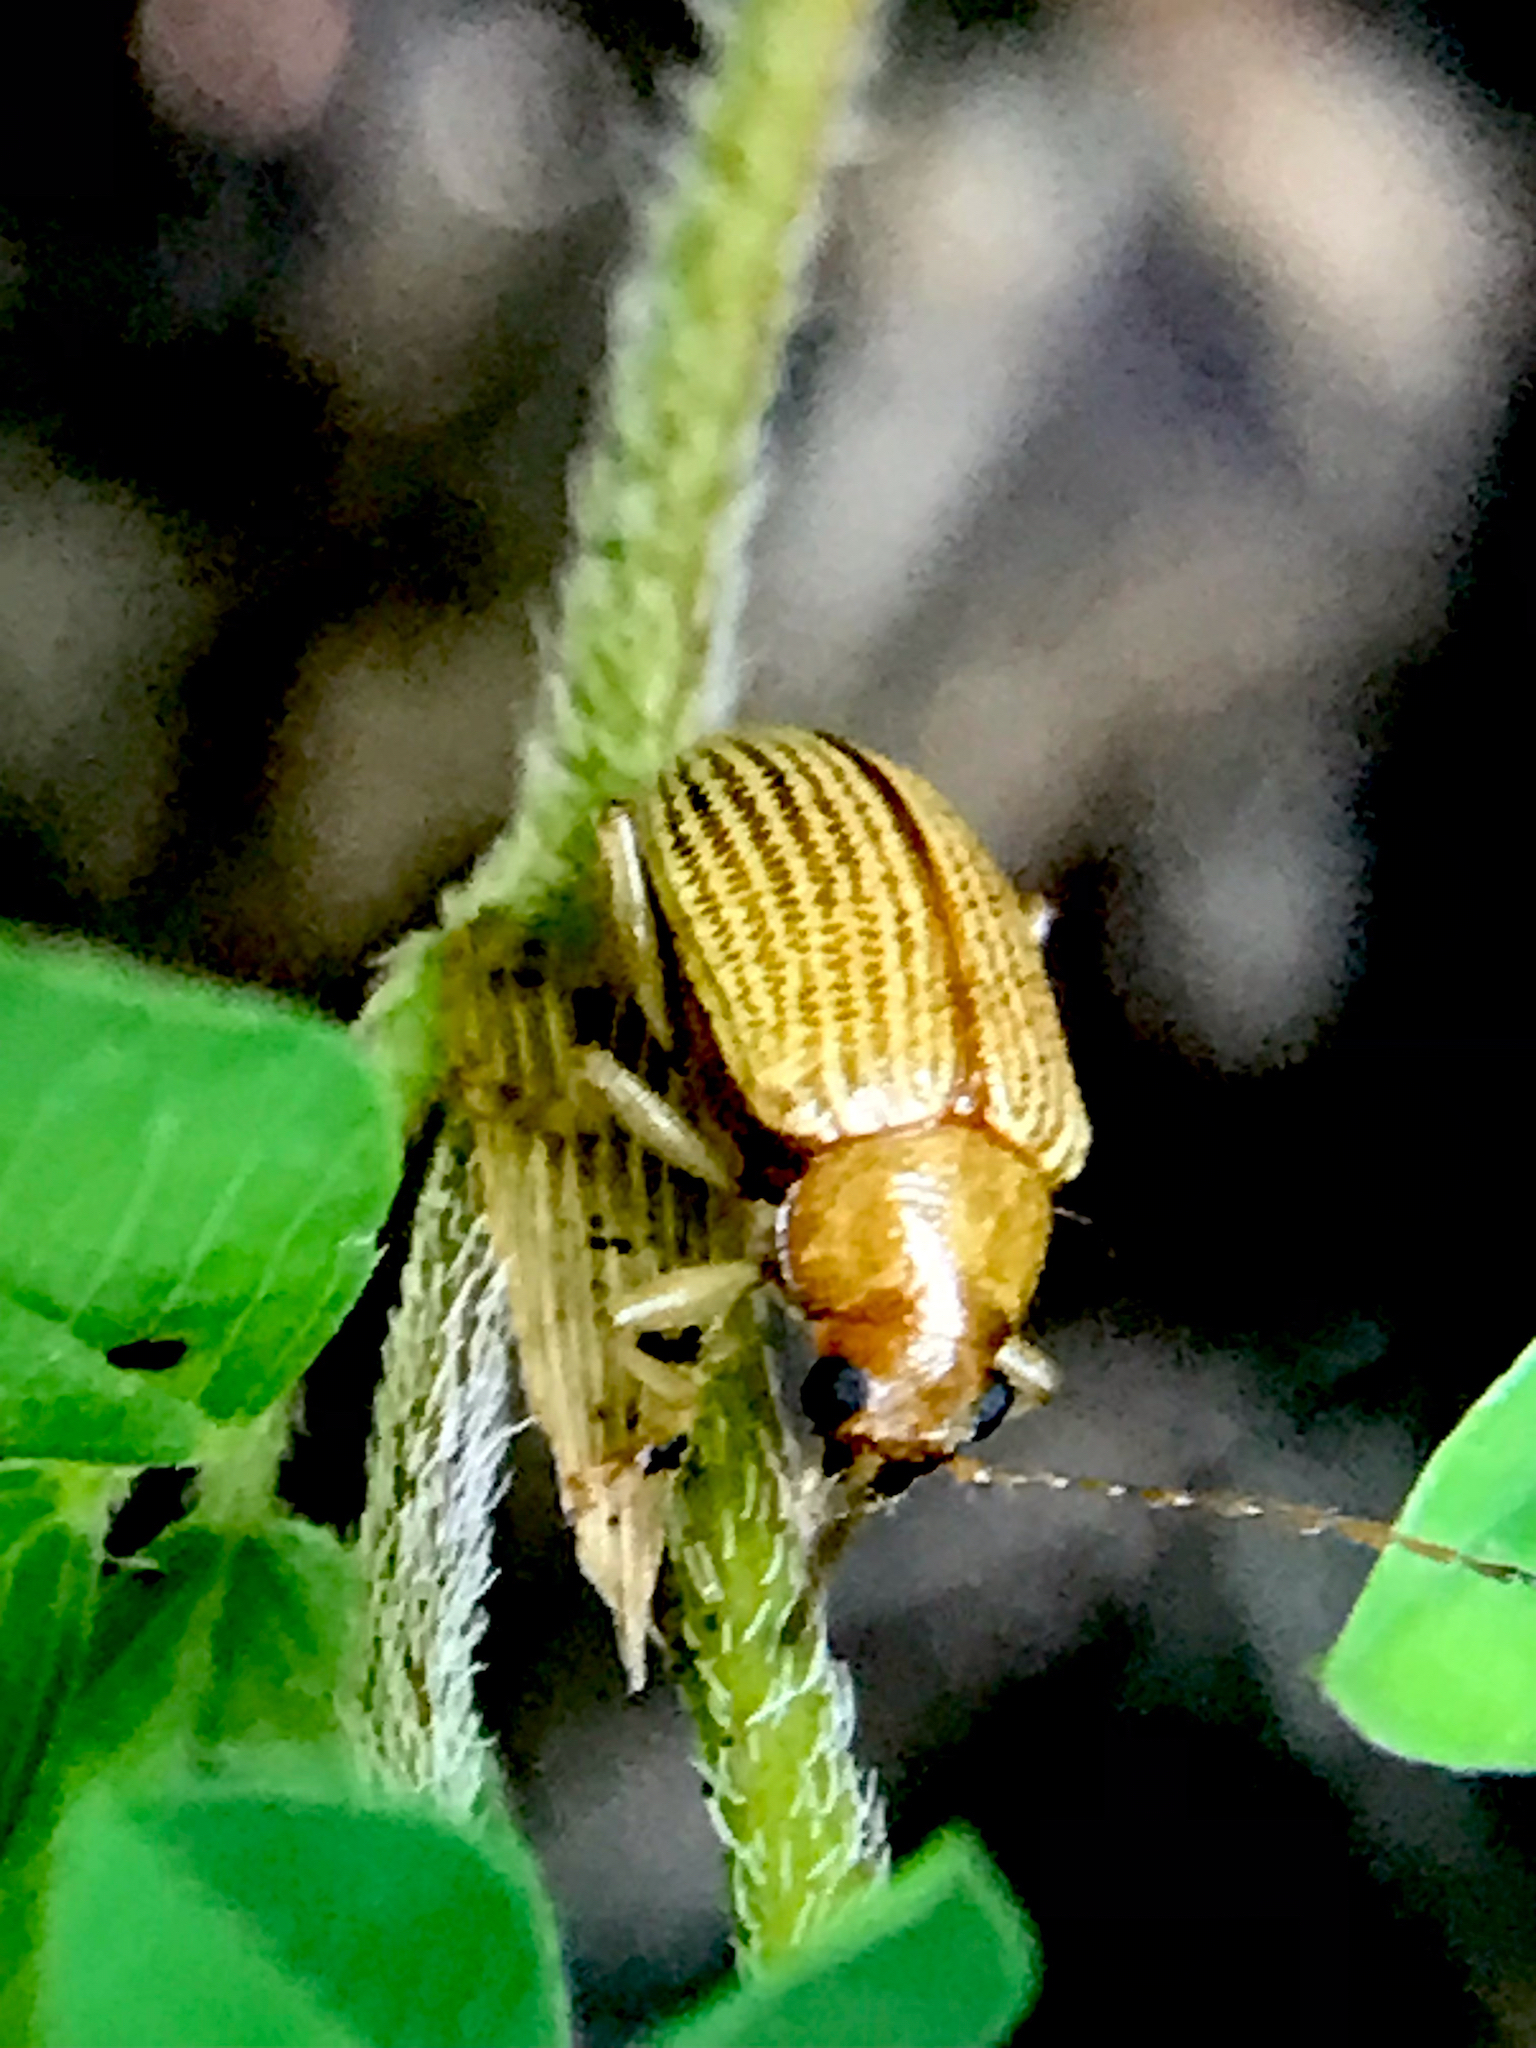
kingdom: Animalia
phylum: Arthropoda
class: Insecta
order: Coleoptera
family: Chrysomelidae
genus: Colaspis
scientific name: Colaspis brunnea
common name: Grape colaspis
